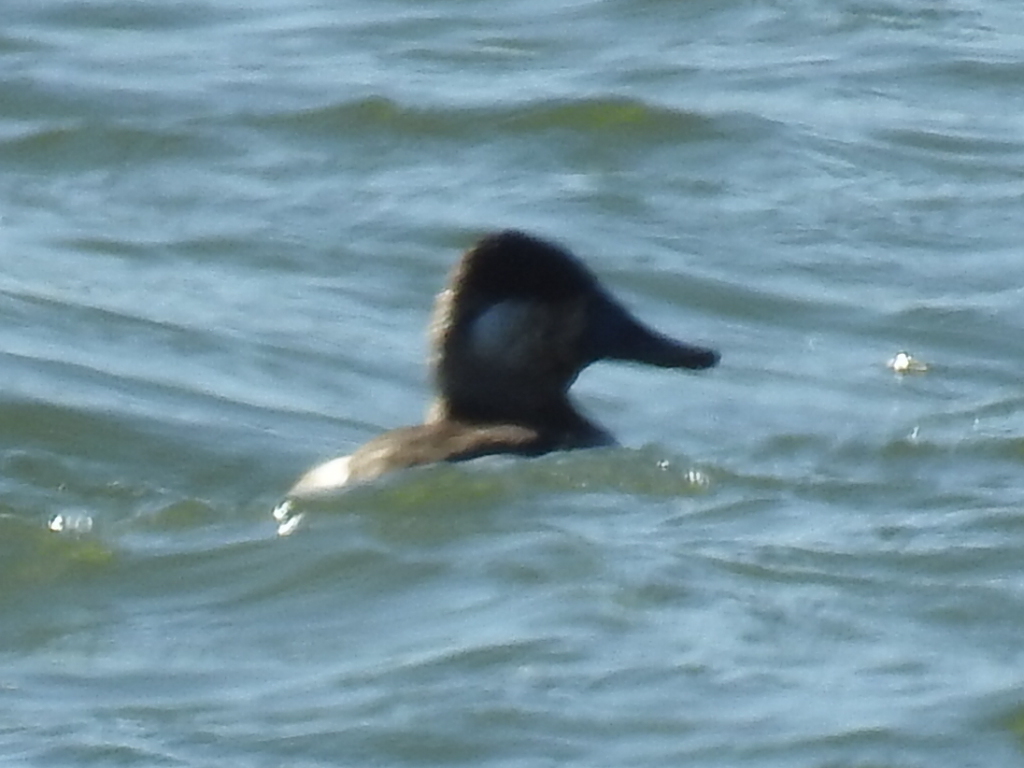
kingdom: Animalia
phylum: Chordata
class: Aves
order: Anseriformes
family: Anatidae
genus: Oxyura
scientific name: Oxyura jamaicensis
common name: Ruddy duck
